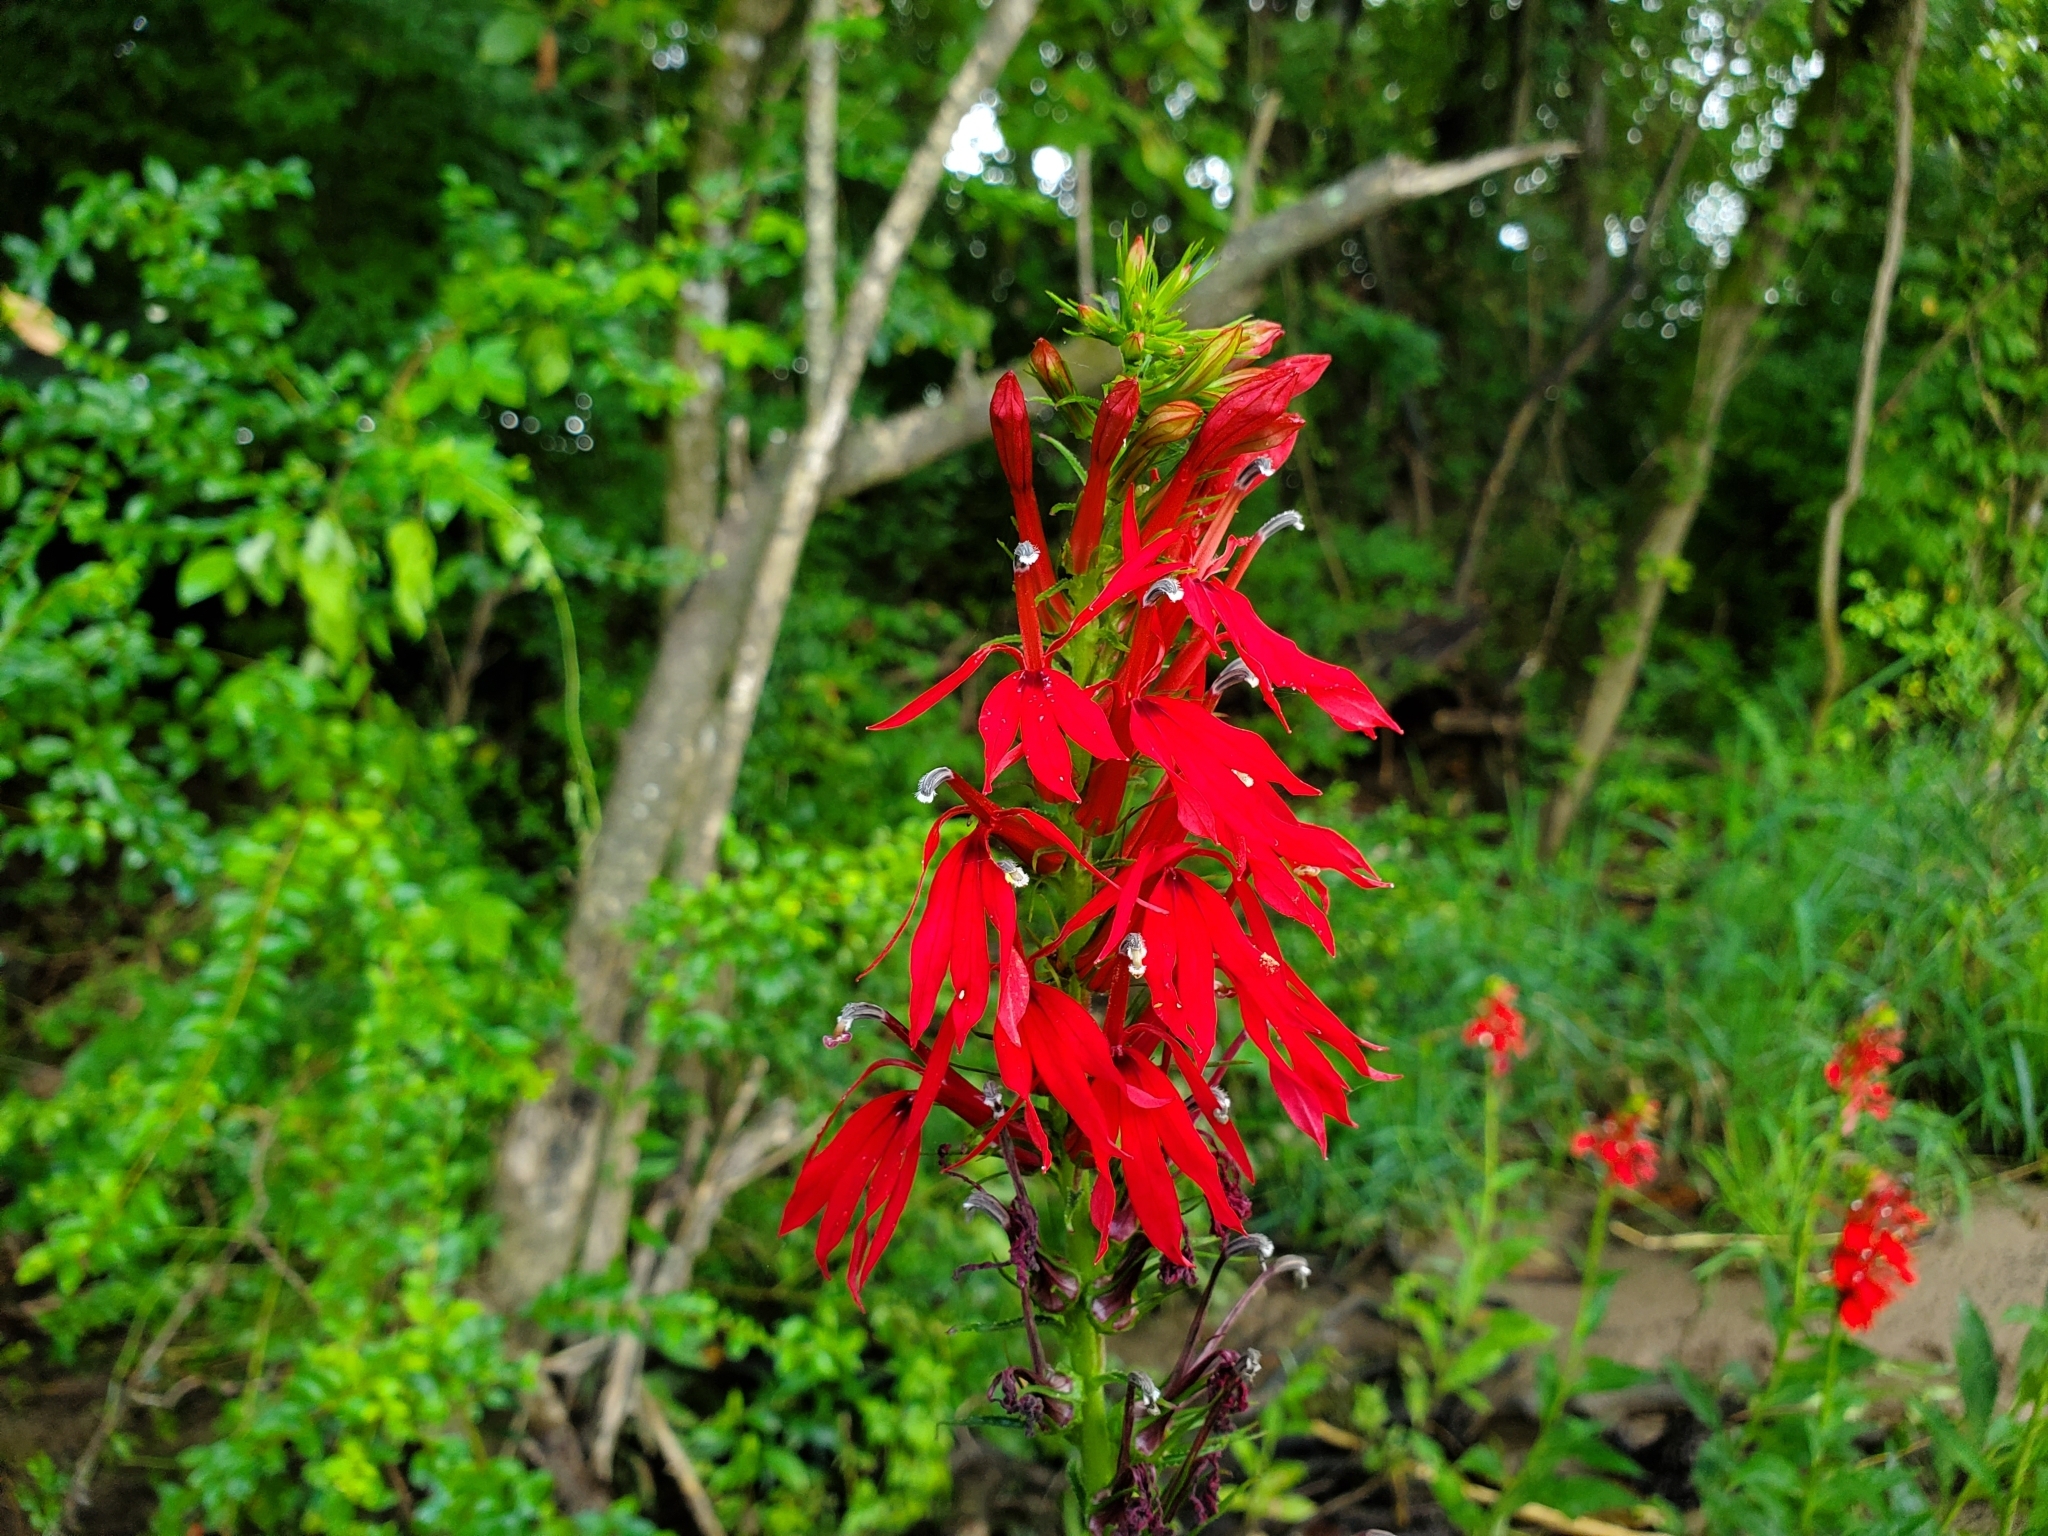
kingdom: Plantae
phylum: Tracheophyta
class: Magnoliopsida
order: Asterales
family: Campanulaceae
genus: Lobelia
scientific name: Lobelia cardinalis
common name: Cardinal flower
